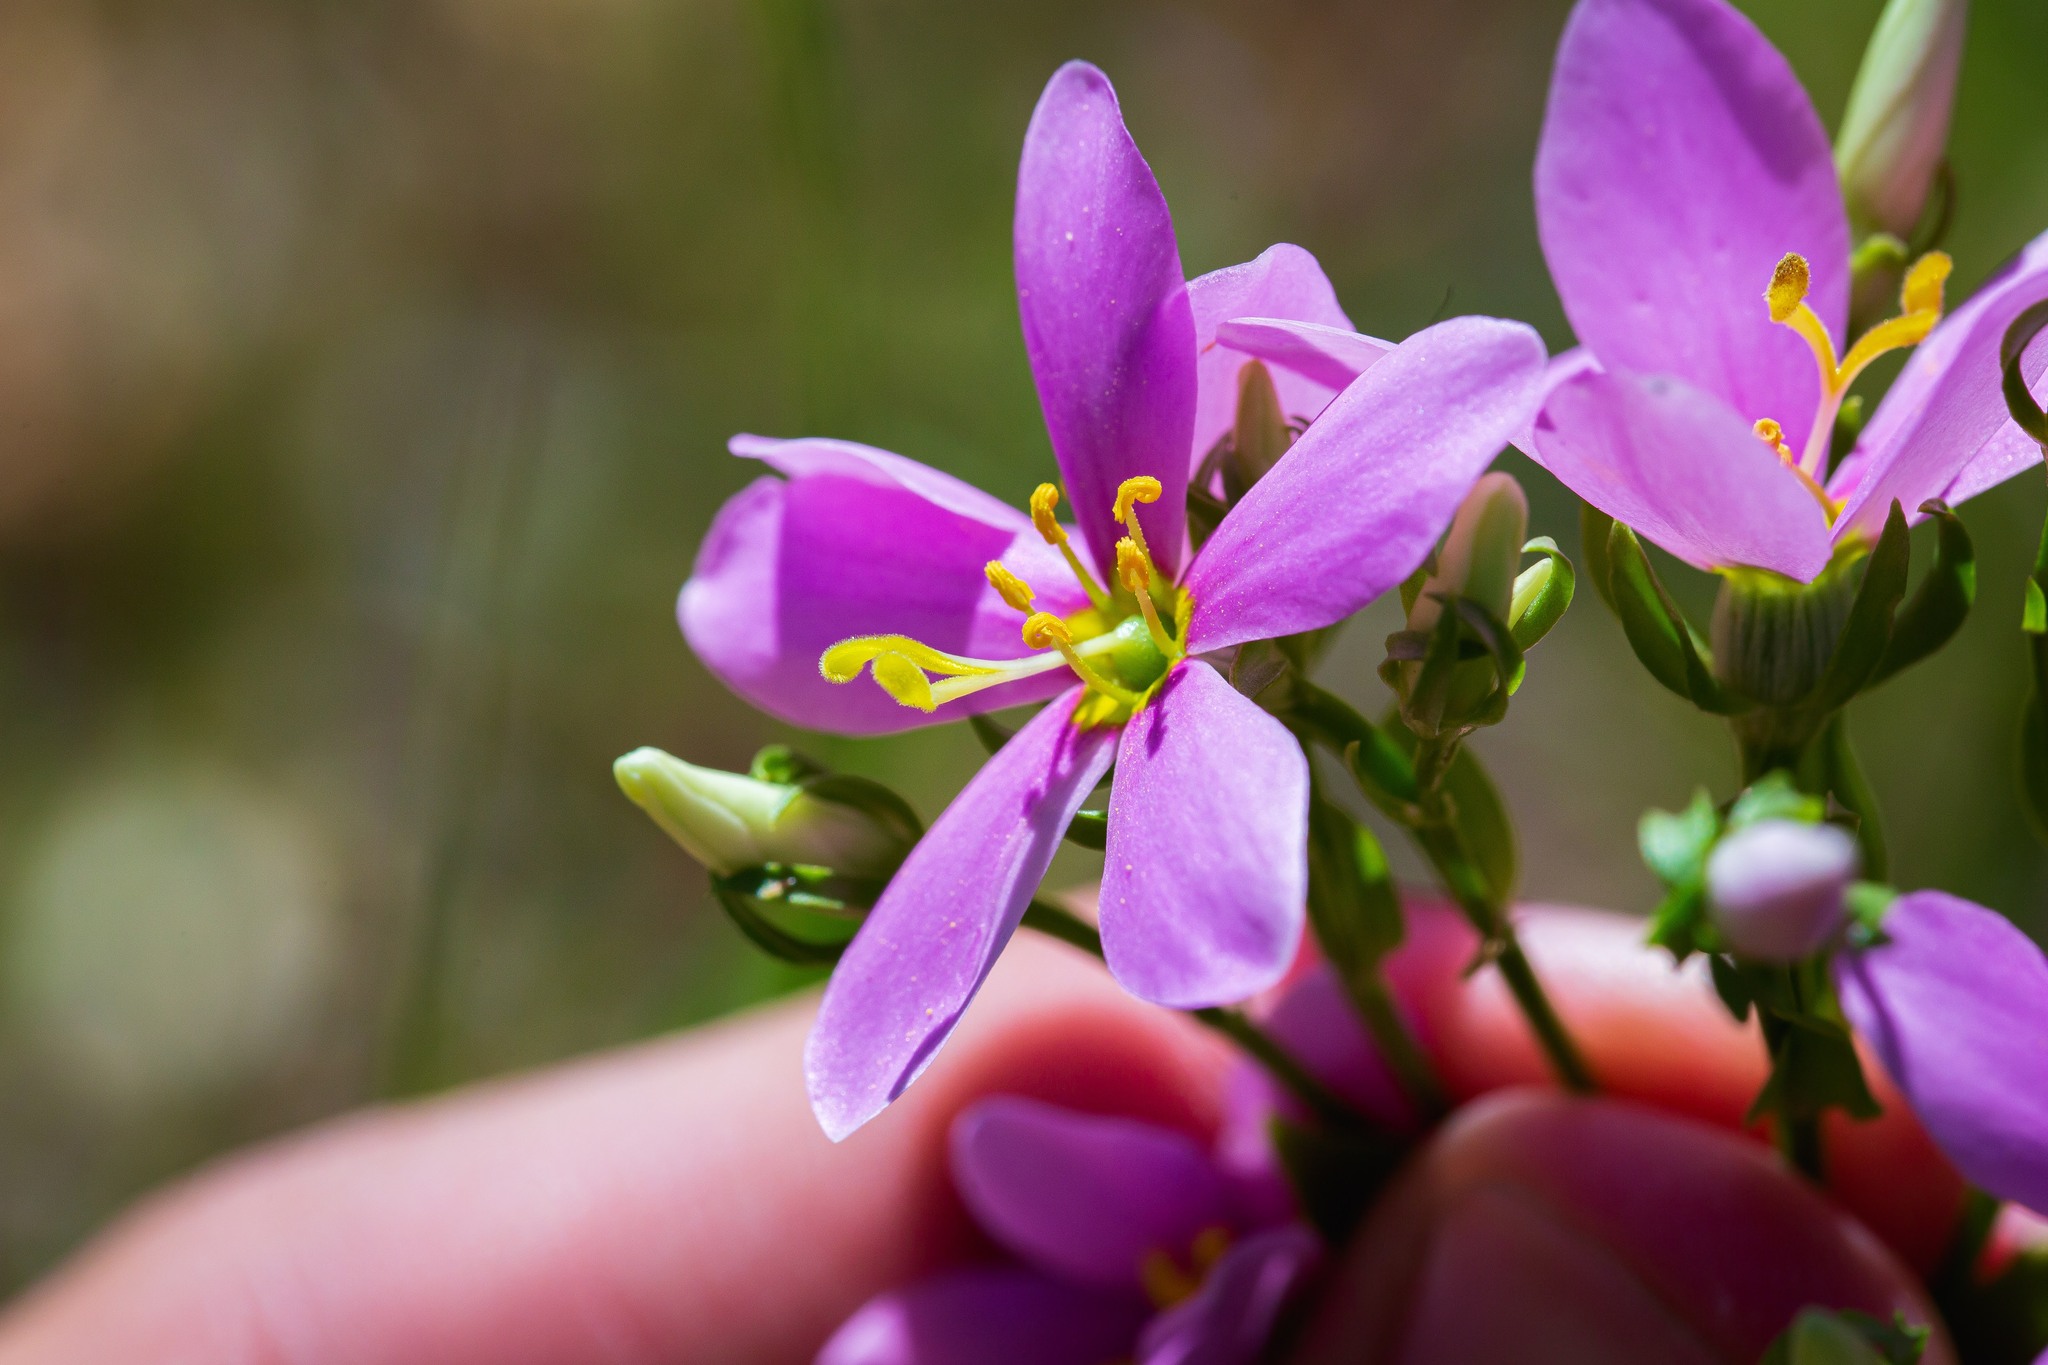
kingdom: Plantae
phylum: Tracheophyta
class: Magnoliopsida
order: Gentianales
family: Gentianaceae
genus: Sabatia
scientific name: Sabatia angularis
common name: Rose-pink
